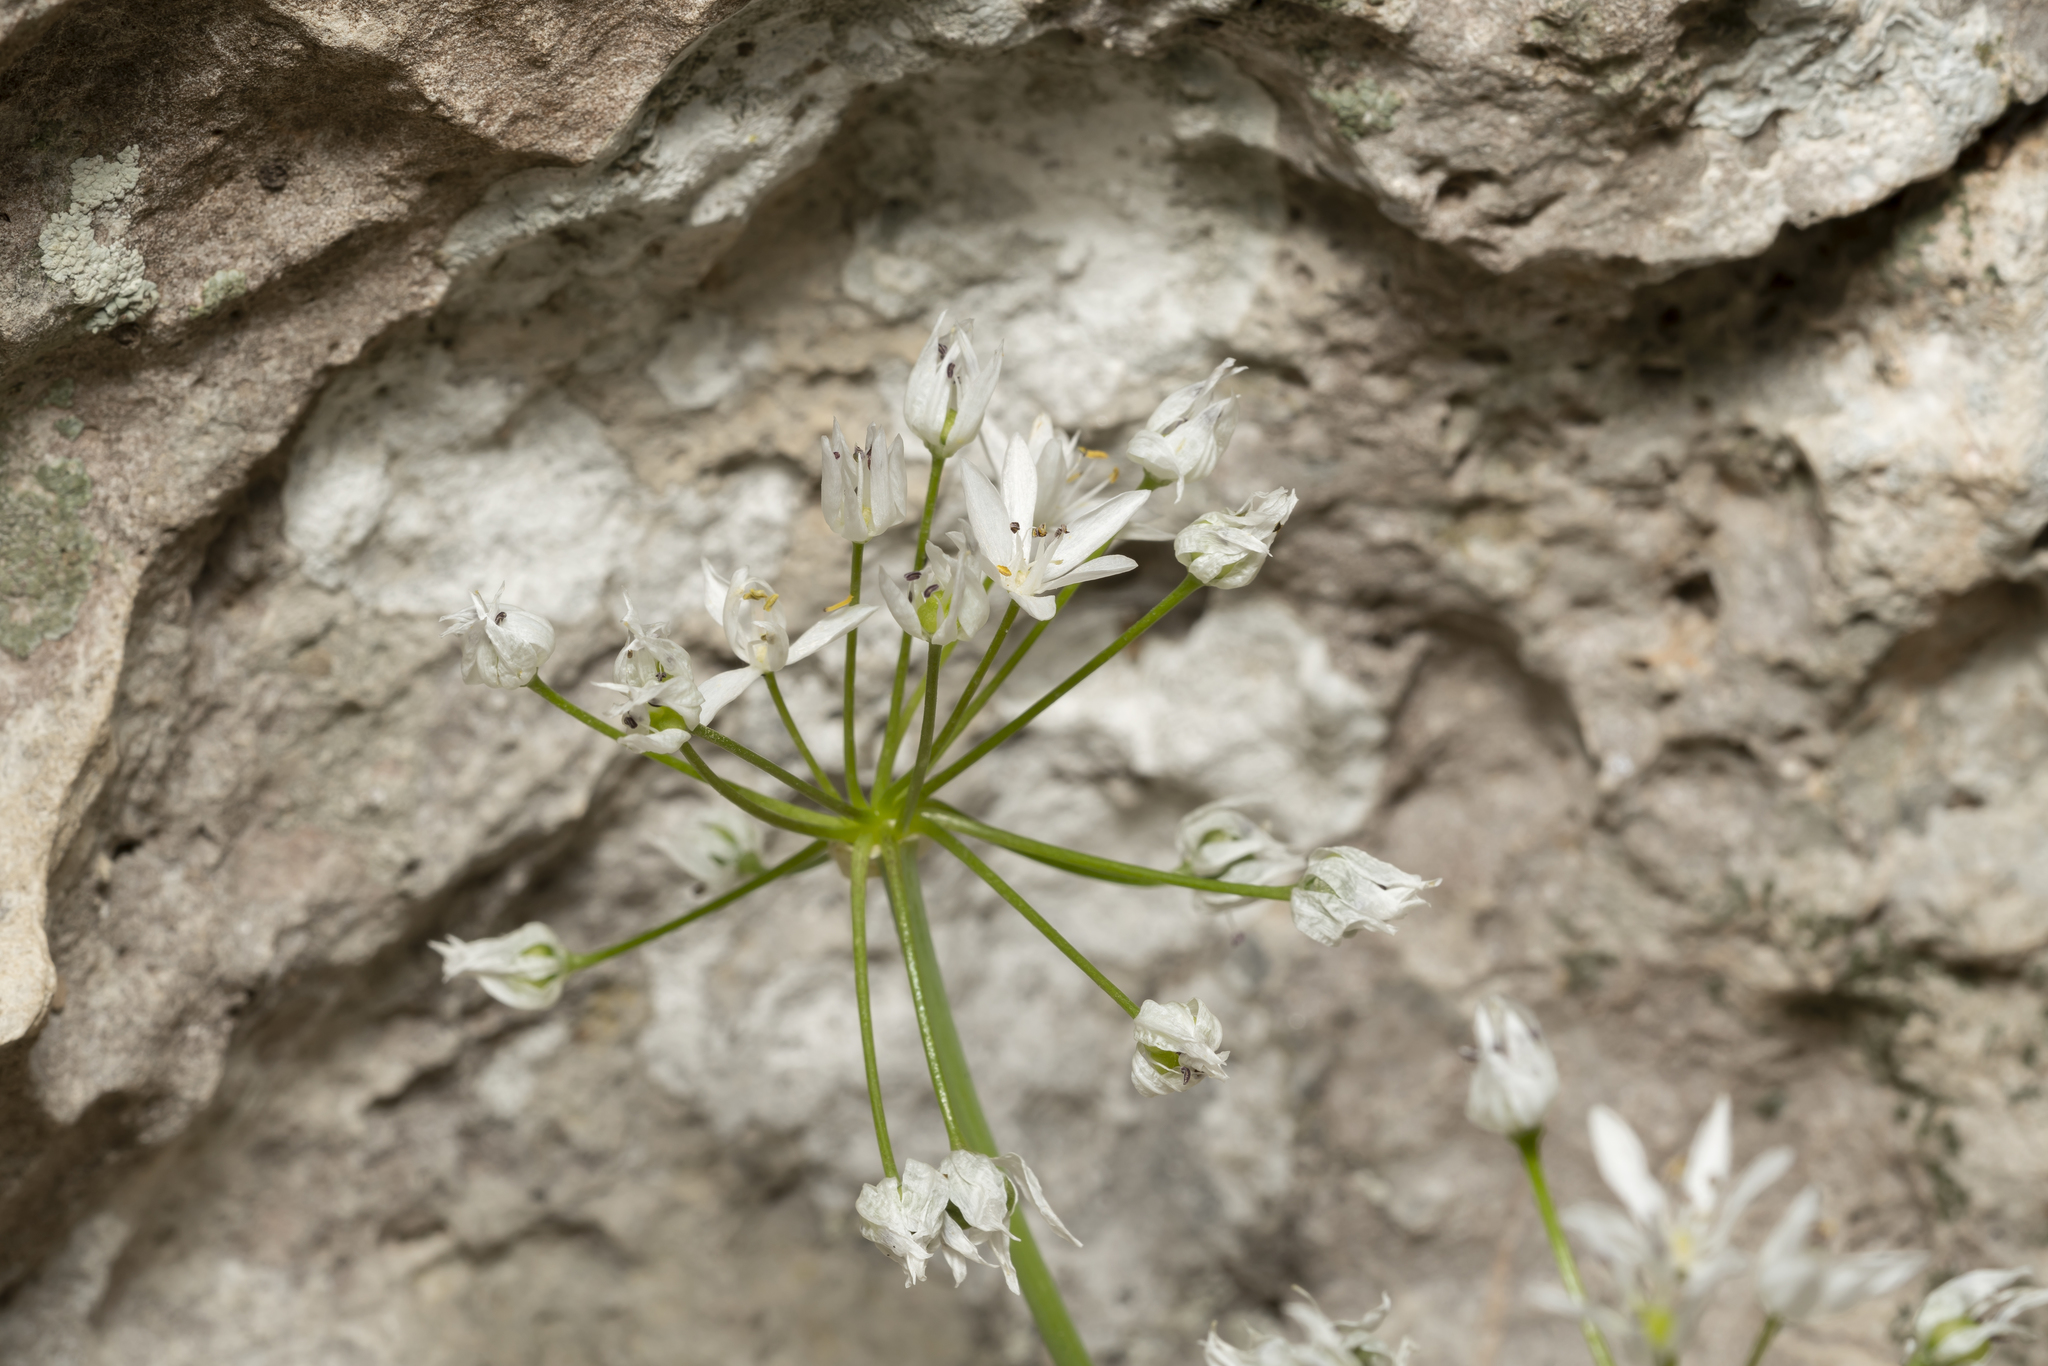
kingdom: Plantae
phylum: Tracheophyta
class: Liliopsida
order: Asparagales
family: Amaryllidaceae
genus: Allium
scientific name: Allium subhirsutum
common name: Hairy garlic
